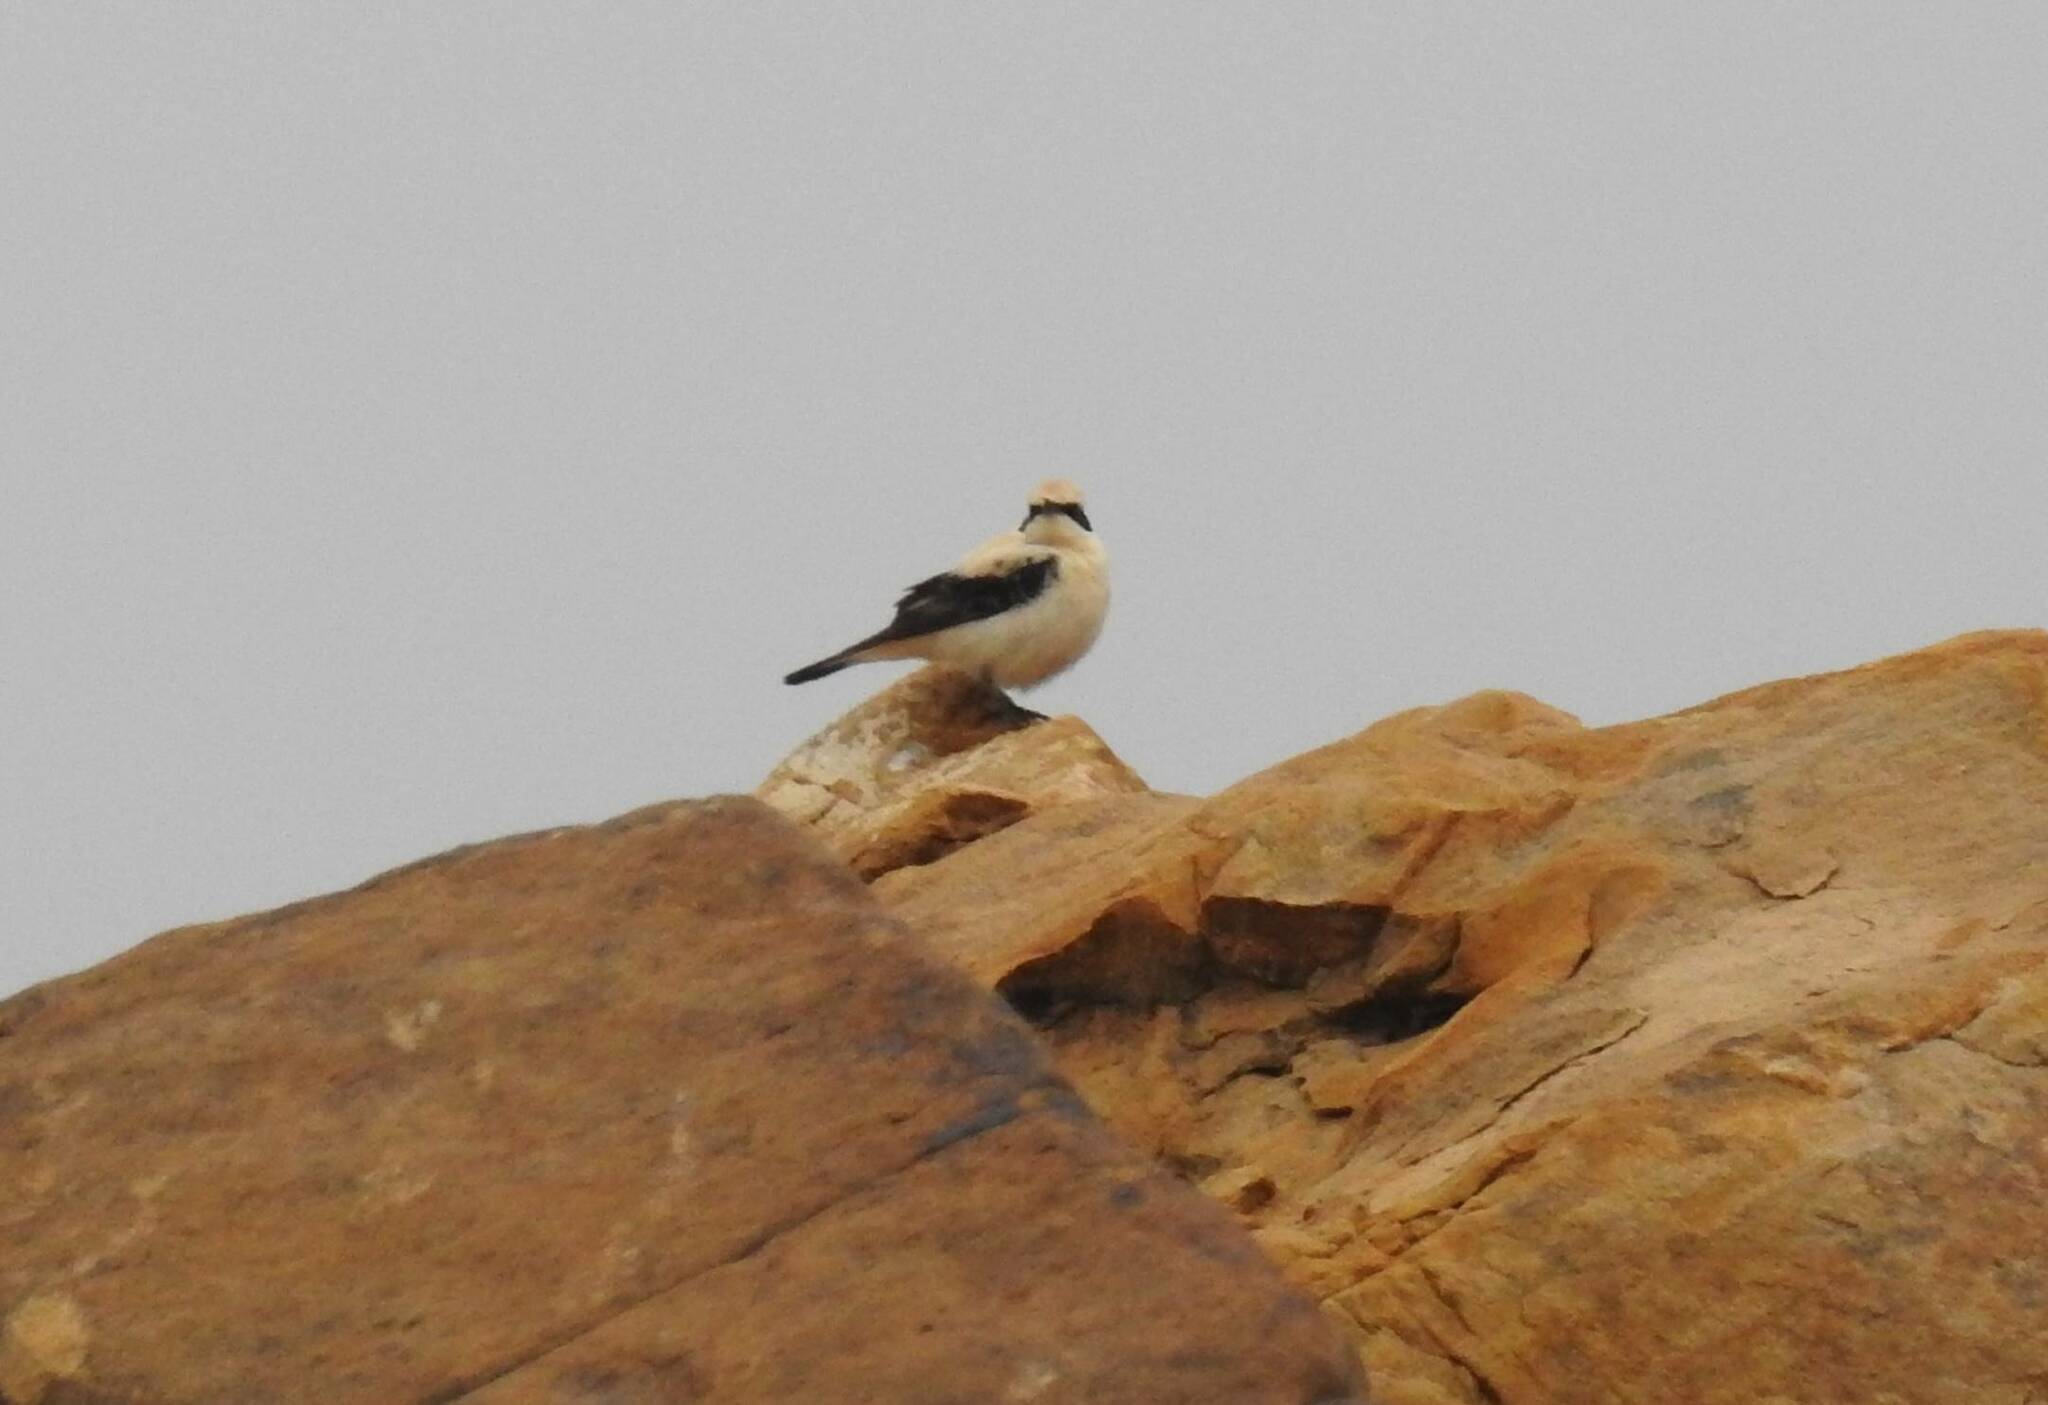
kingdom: Animalia
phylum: Chordata
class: Aves
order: Passeriformes
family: Muscicapidae
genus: Oenanthe
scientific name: Oenanthe hispanica
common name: Black-eared wheatear
